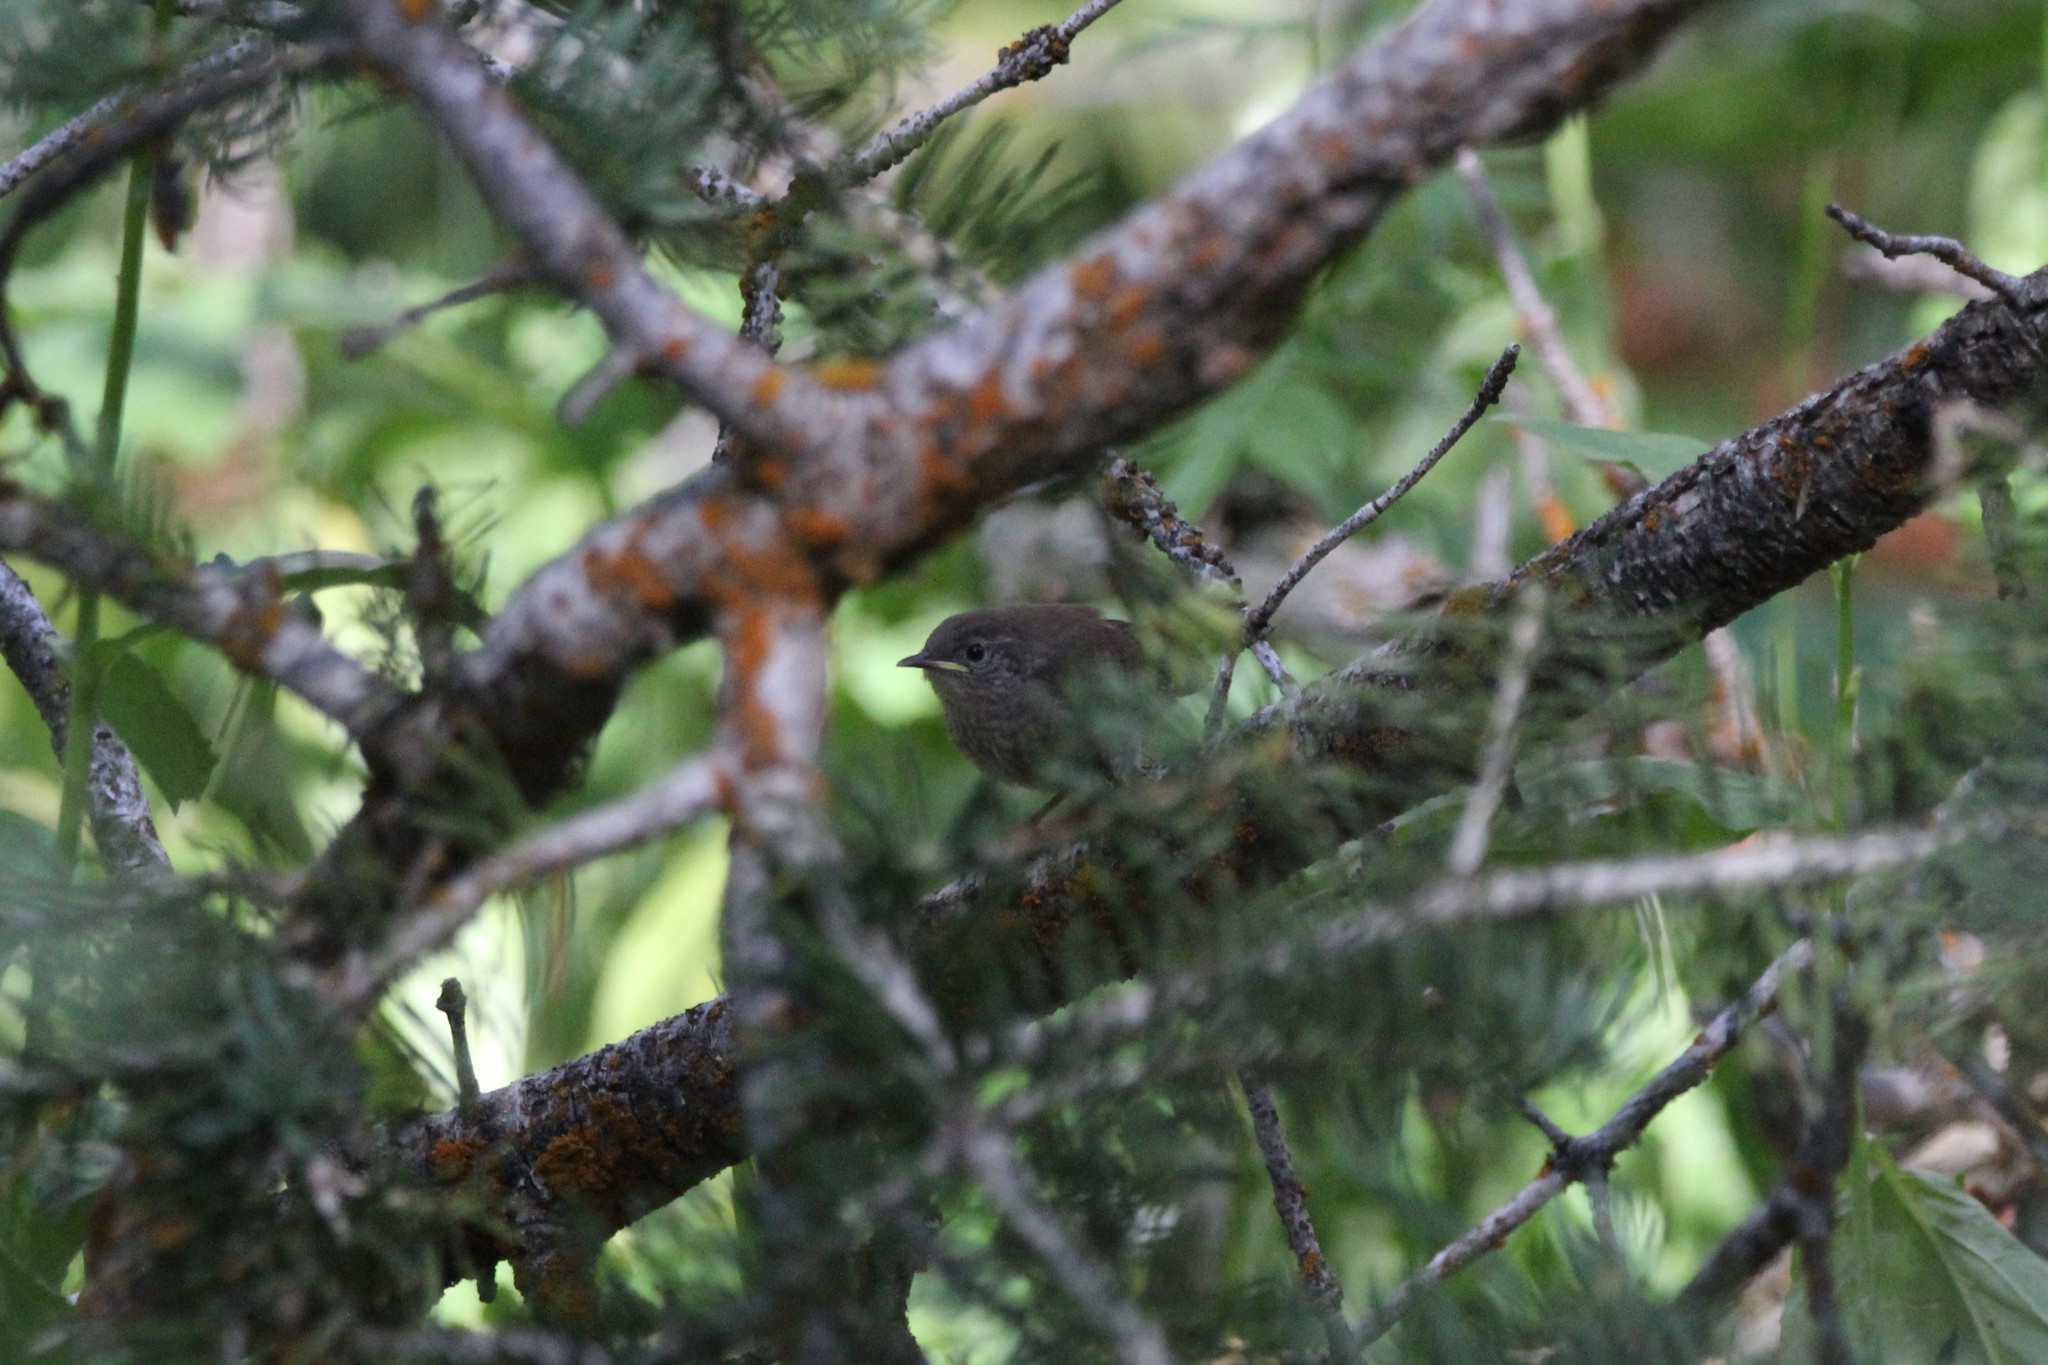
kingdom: Animalia
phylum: Chordata
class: Aves
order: Passeriformes
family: Troglodytidae
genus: Troglodytes
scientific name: Troglodytes aedon
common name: House wren
